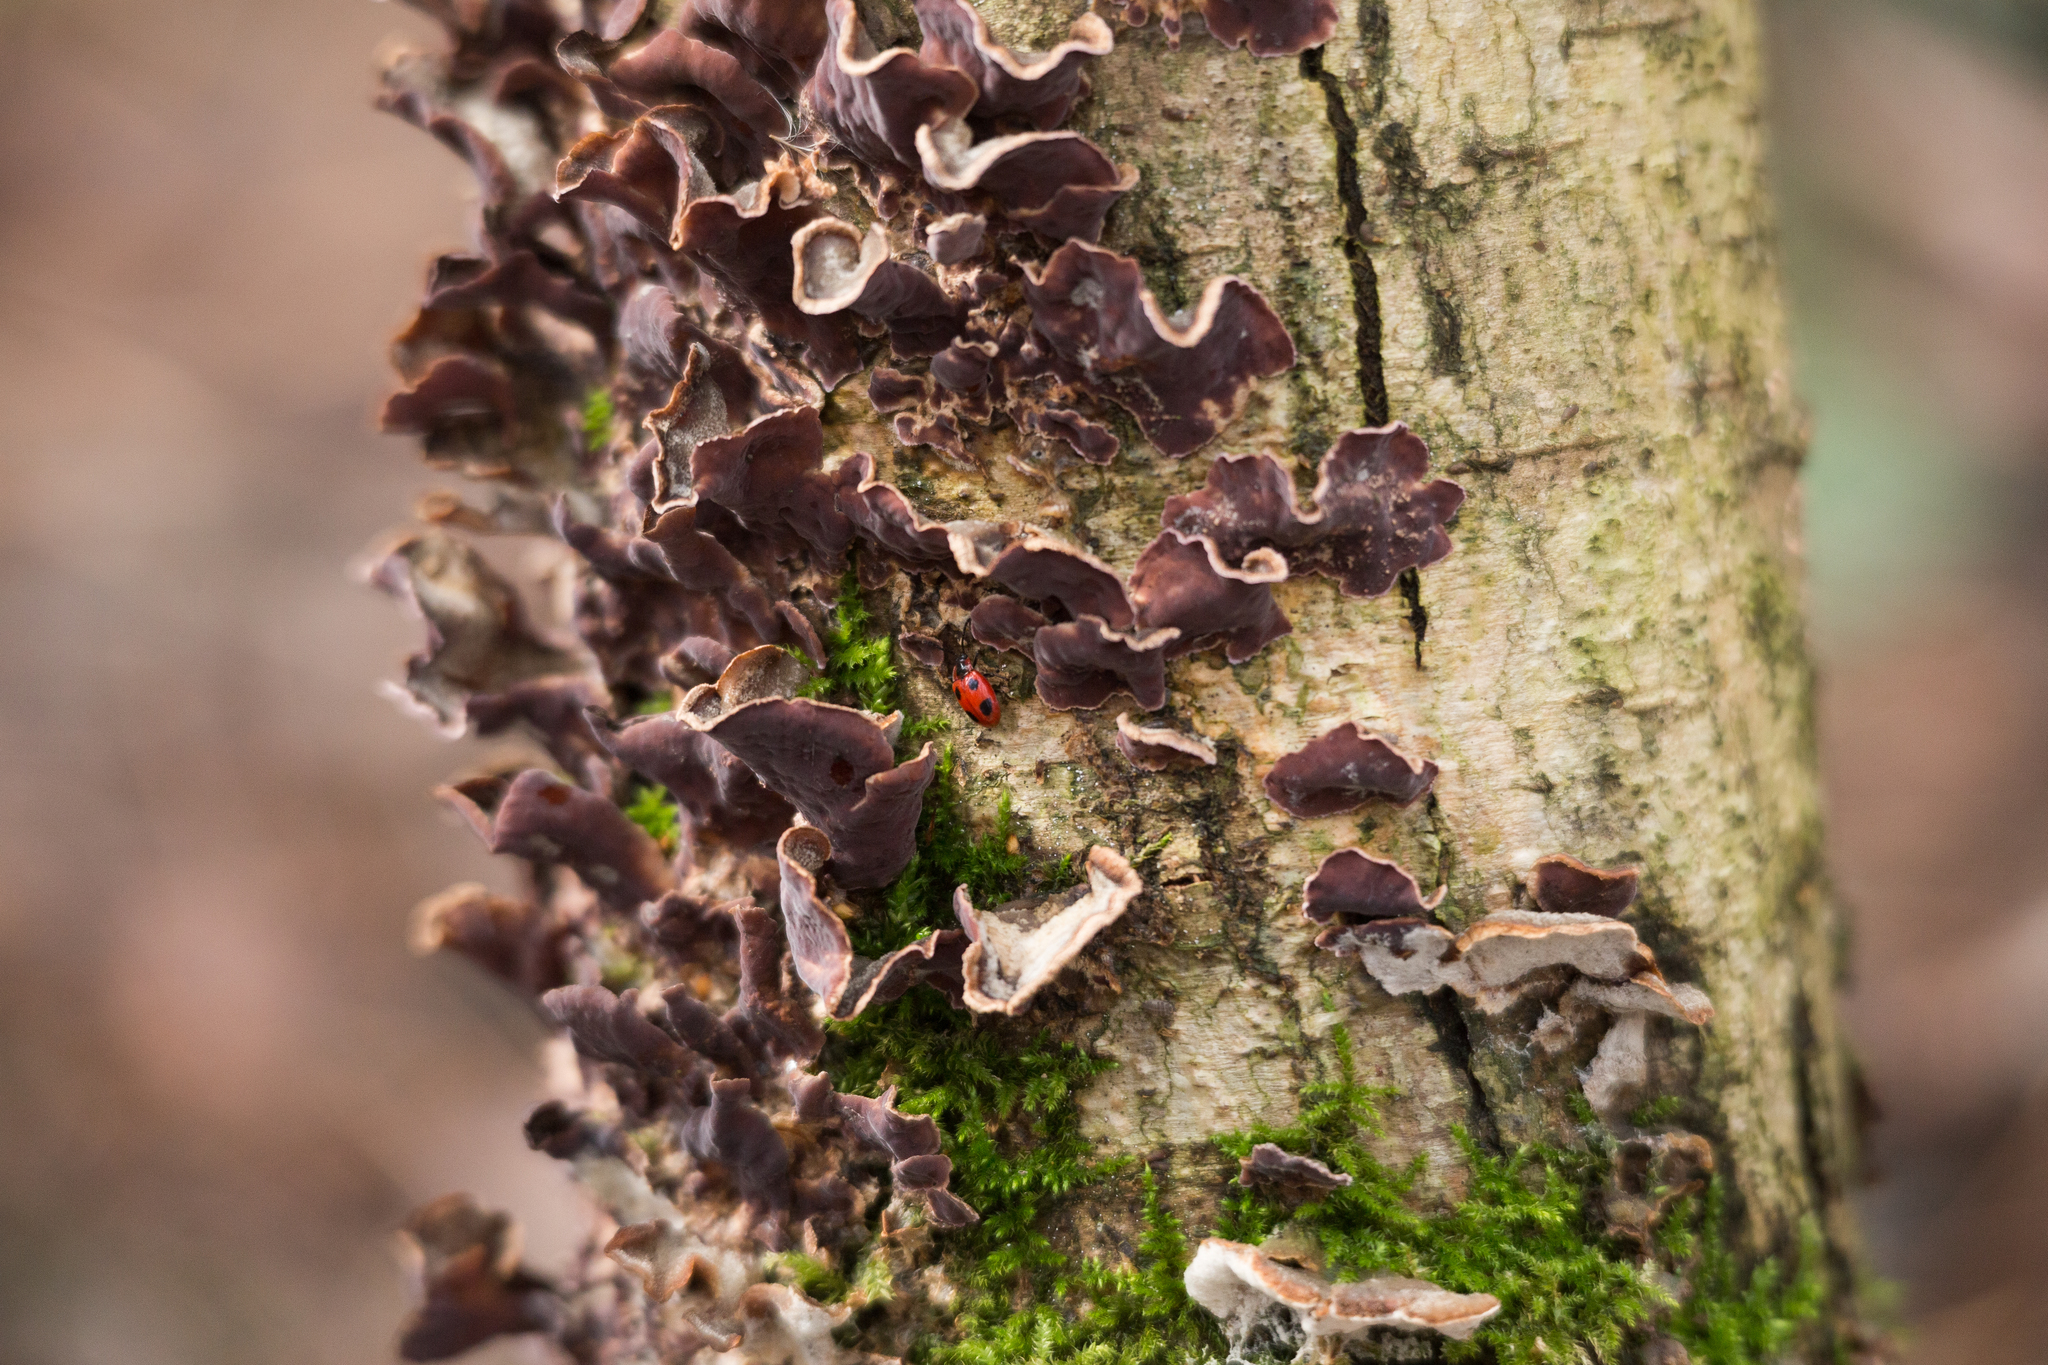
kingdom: Fungi
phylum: Basidiomycota
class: Agaricomycetes
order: Agaricales
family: Cyphellaceae
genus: Chondrostereum
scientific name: Chondrostereum purpureum
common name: Silver leaf disease
